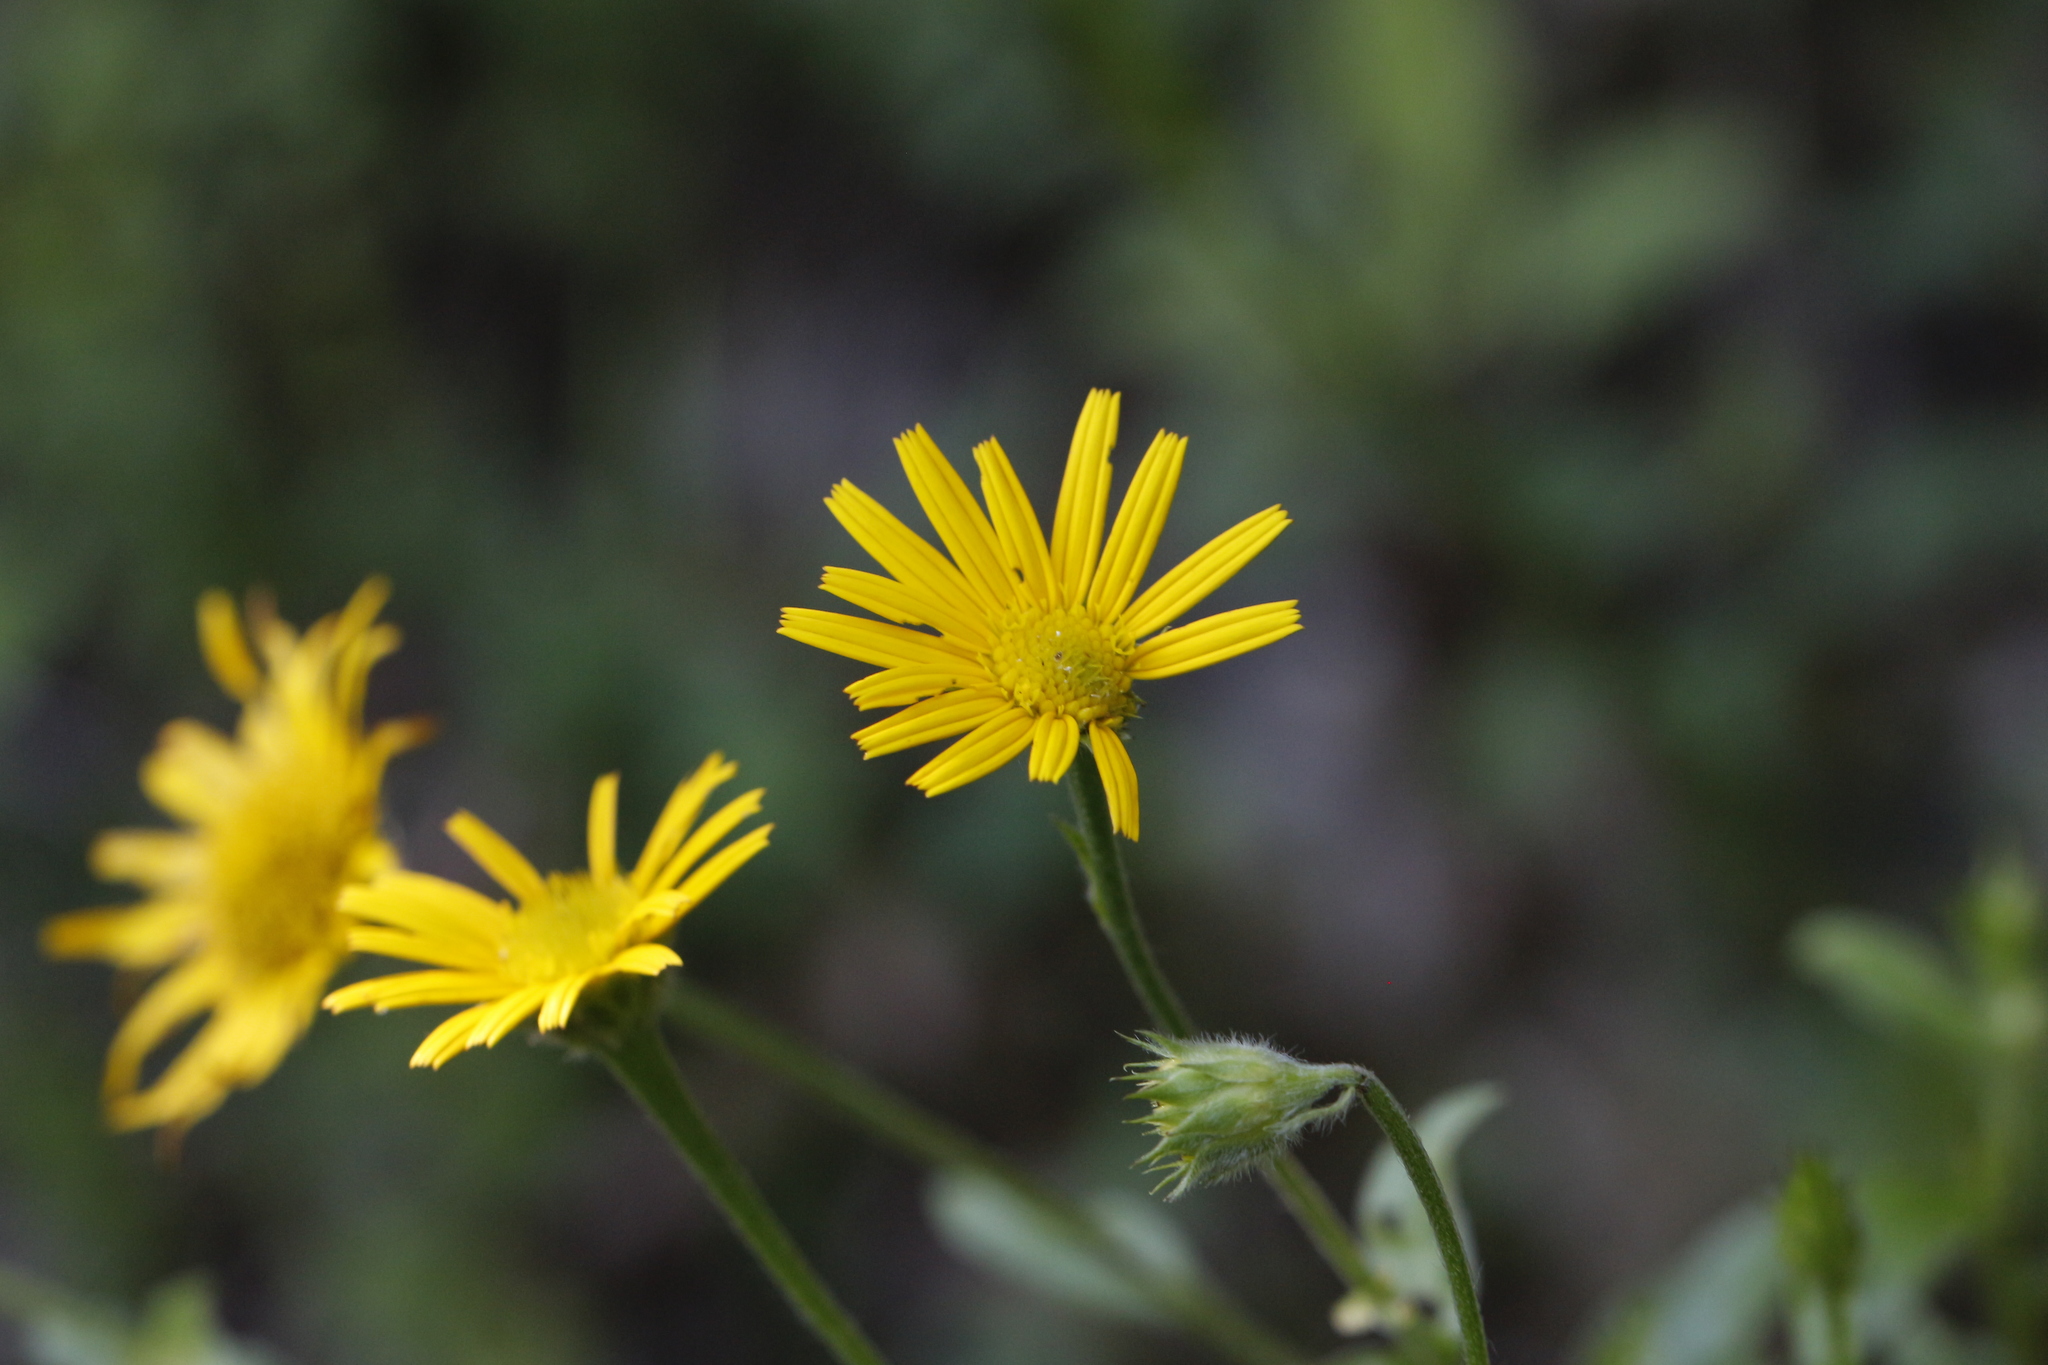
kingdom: Plantae
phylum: Tracheophyta
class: Magnoliopsida
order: Asterales
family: Asteraceae
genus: Buphthalmum
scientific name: Buphthalmum salicifolium
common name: Willow-leaved yellow-oxeye
